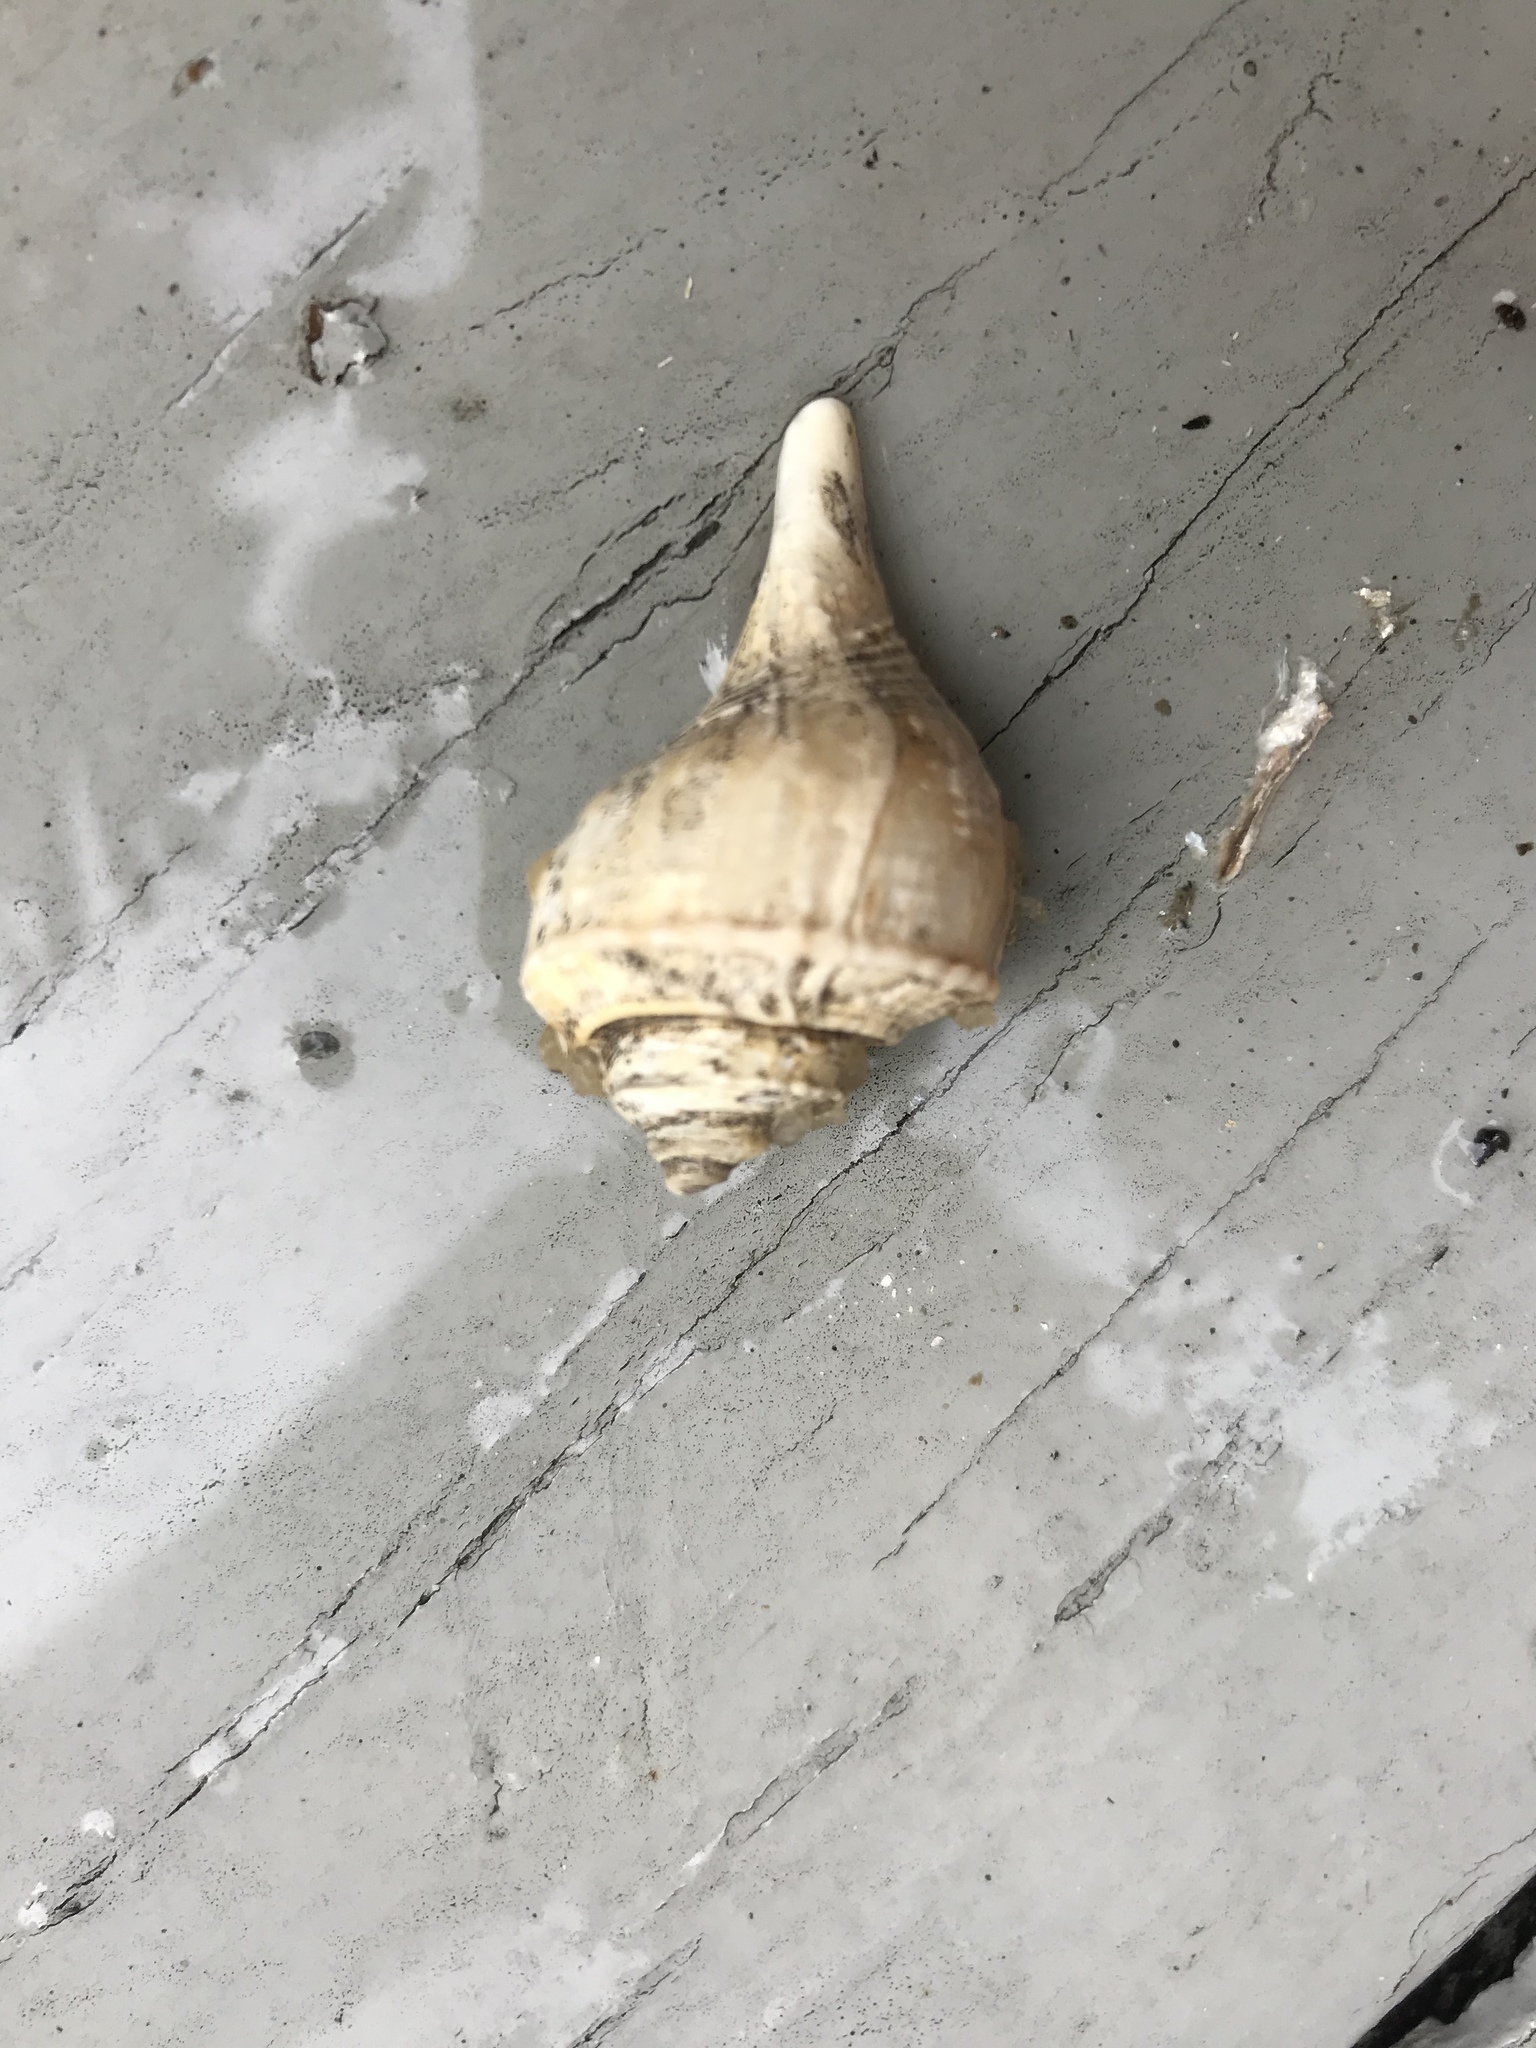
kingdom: Animalia
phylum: Mollusca
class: Gastropoda
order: Neogastropoda
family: Busyconidae
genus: Busycotypus
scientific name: Busycotypus canaliculatus
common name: Channeled whelk
